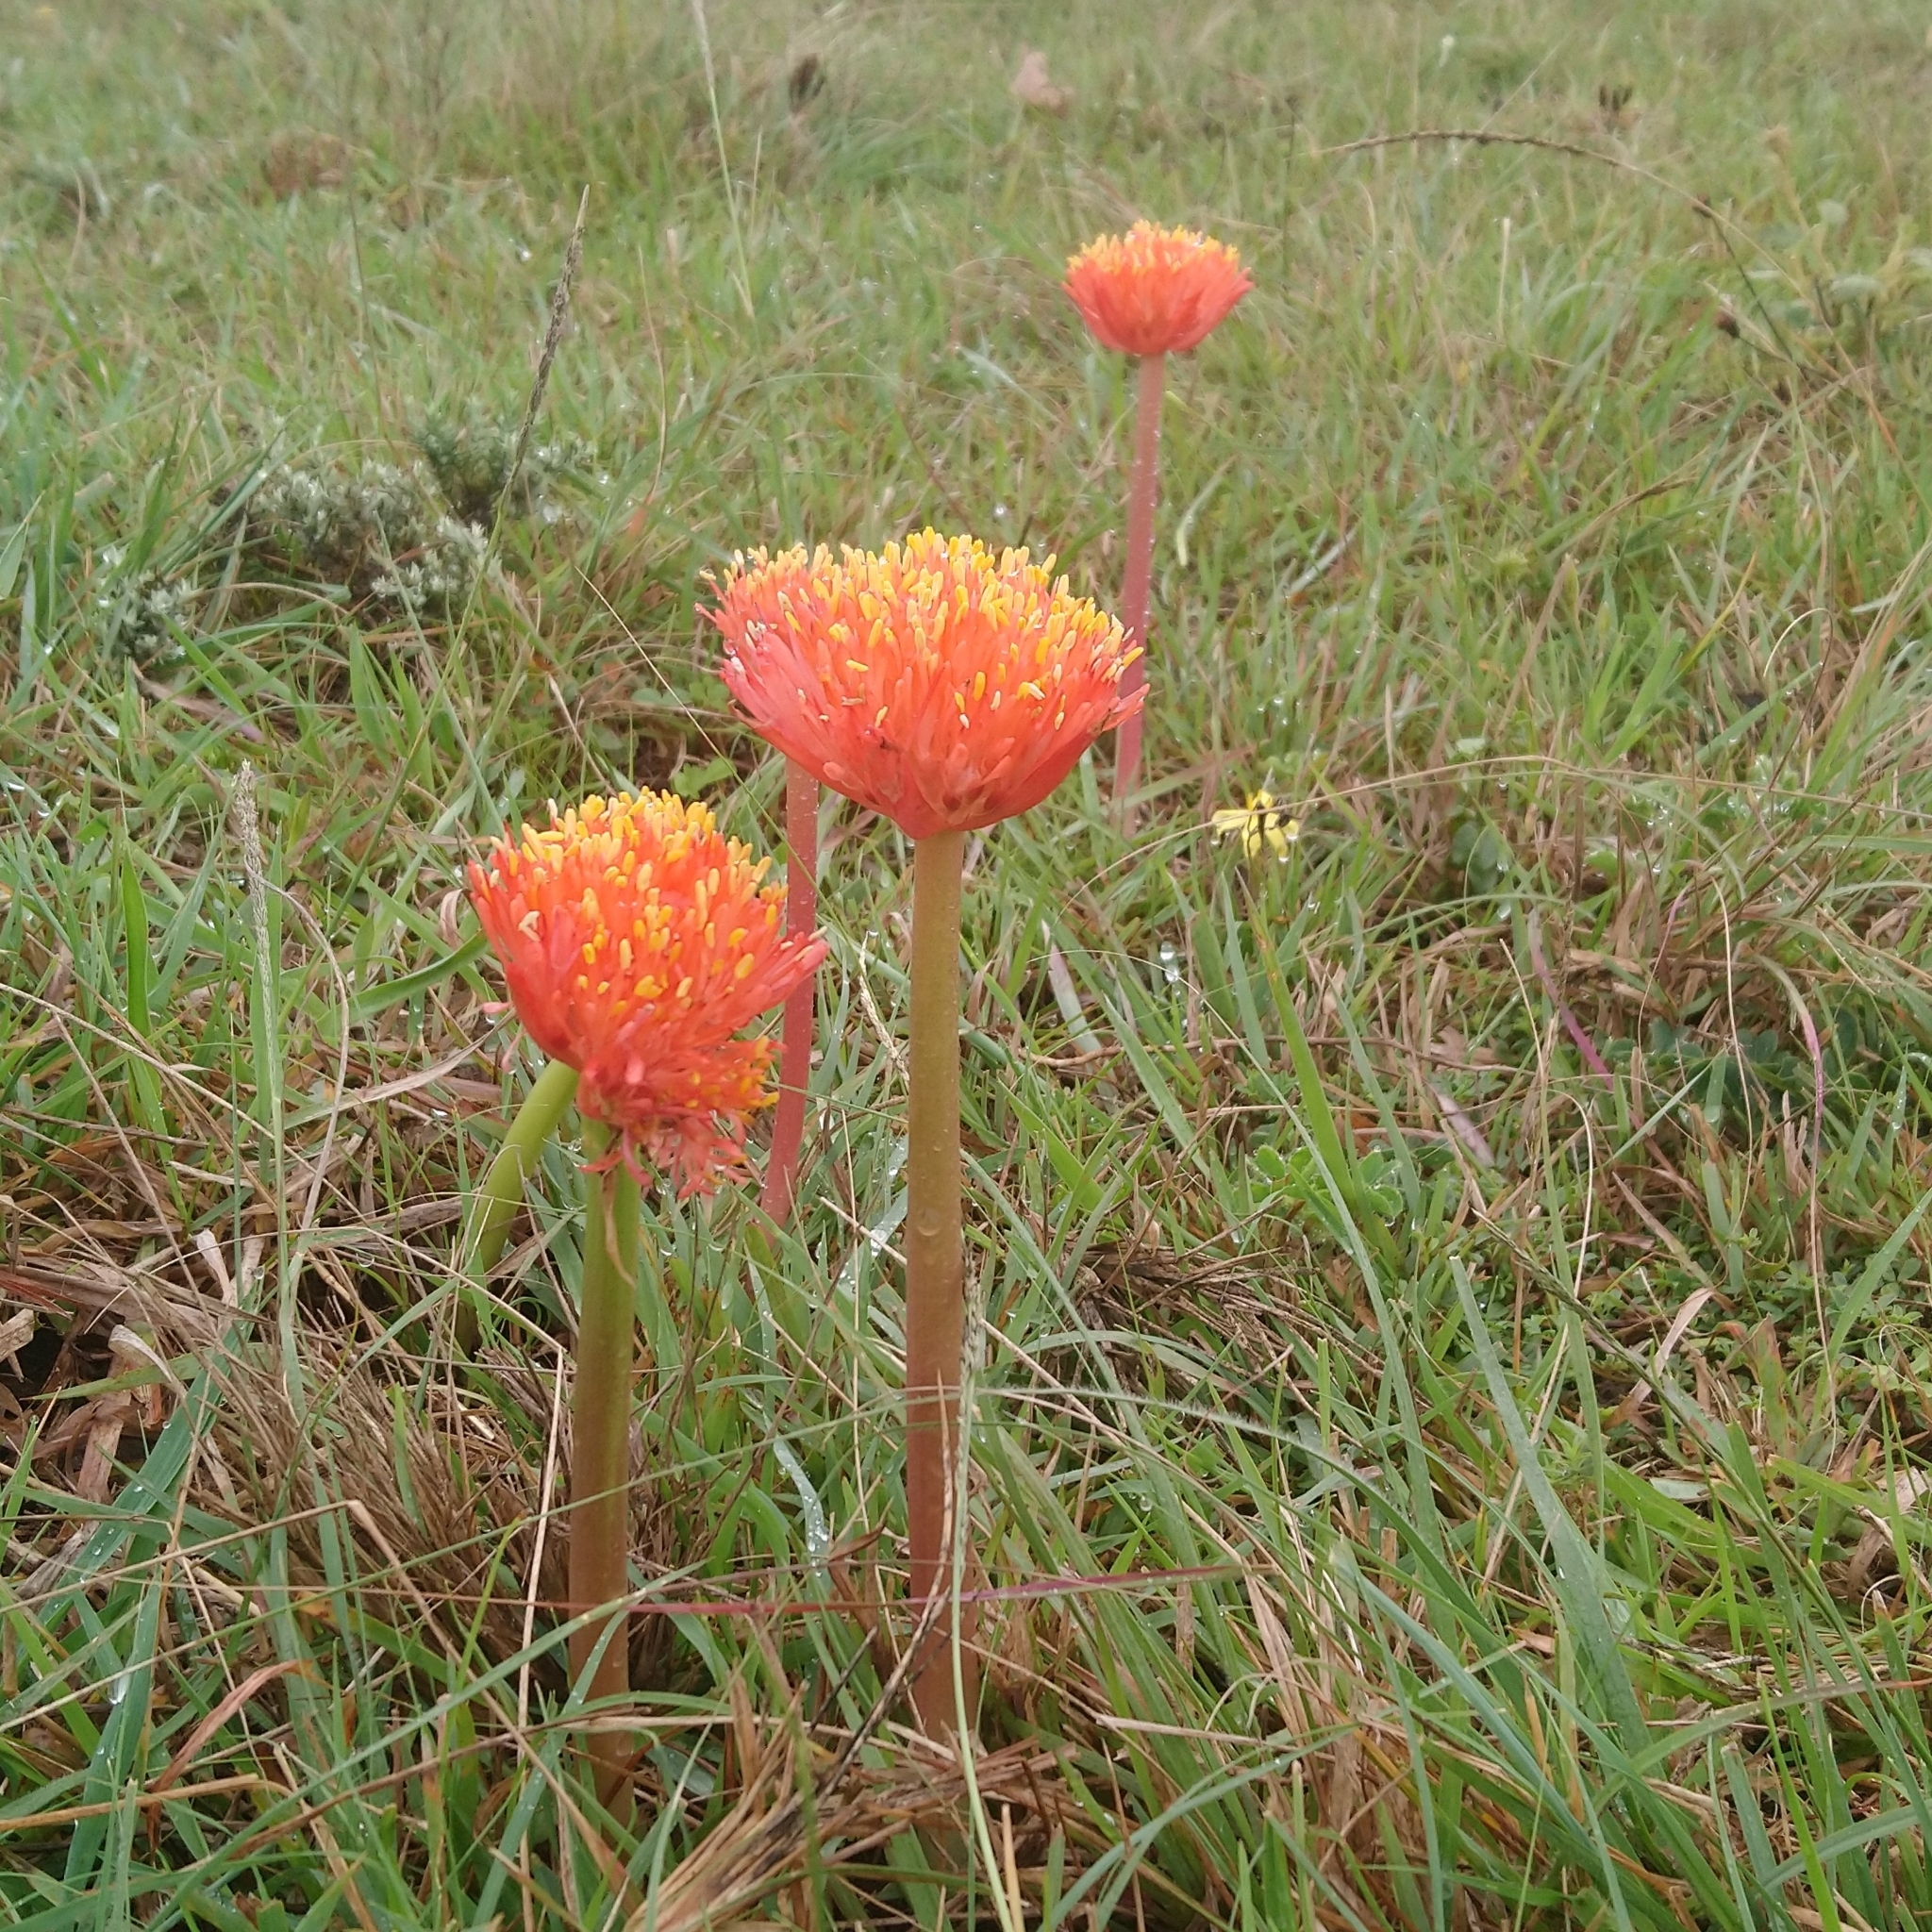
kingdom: Plantae
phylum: Tracheophyta
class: Liliopsida
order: Asparagales
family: Amaryllidaceae
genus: Haemanthus
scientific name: Haemanthus sanguineus
